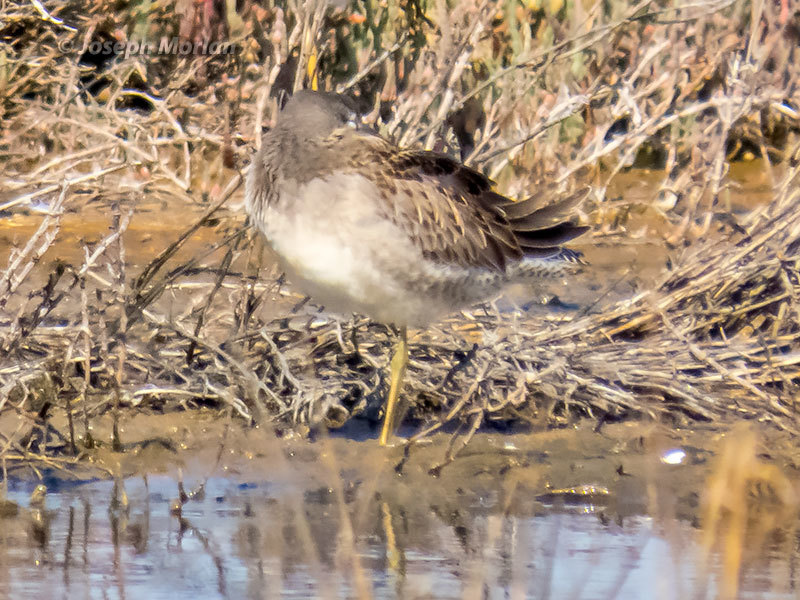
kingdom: Animalia
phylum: Chordata
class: Aves
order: Charadriiformes
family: Scolopacidae
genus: Limnodromus
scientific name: Limnodromus scolopaceus
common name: Long-billed dowitcher
